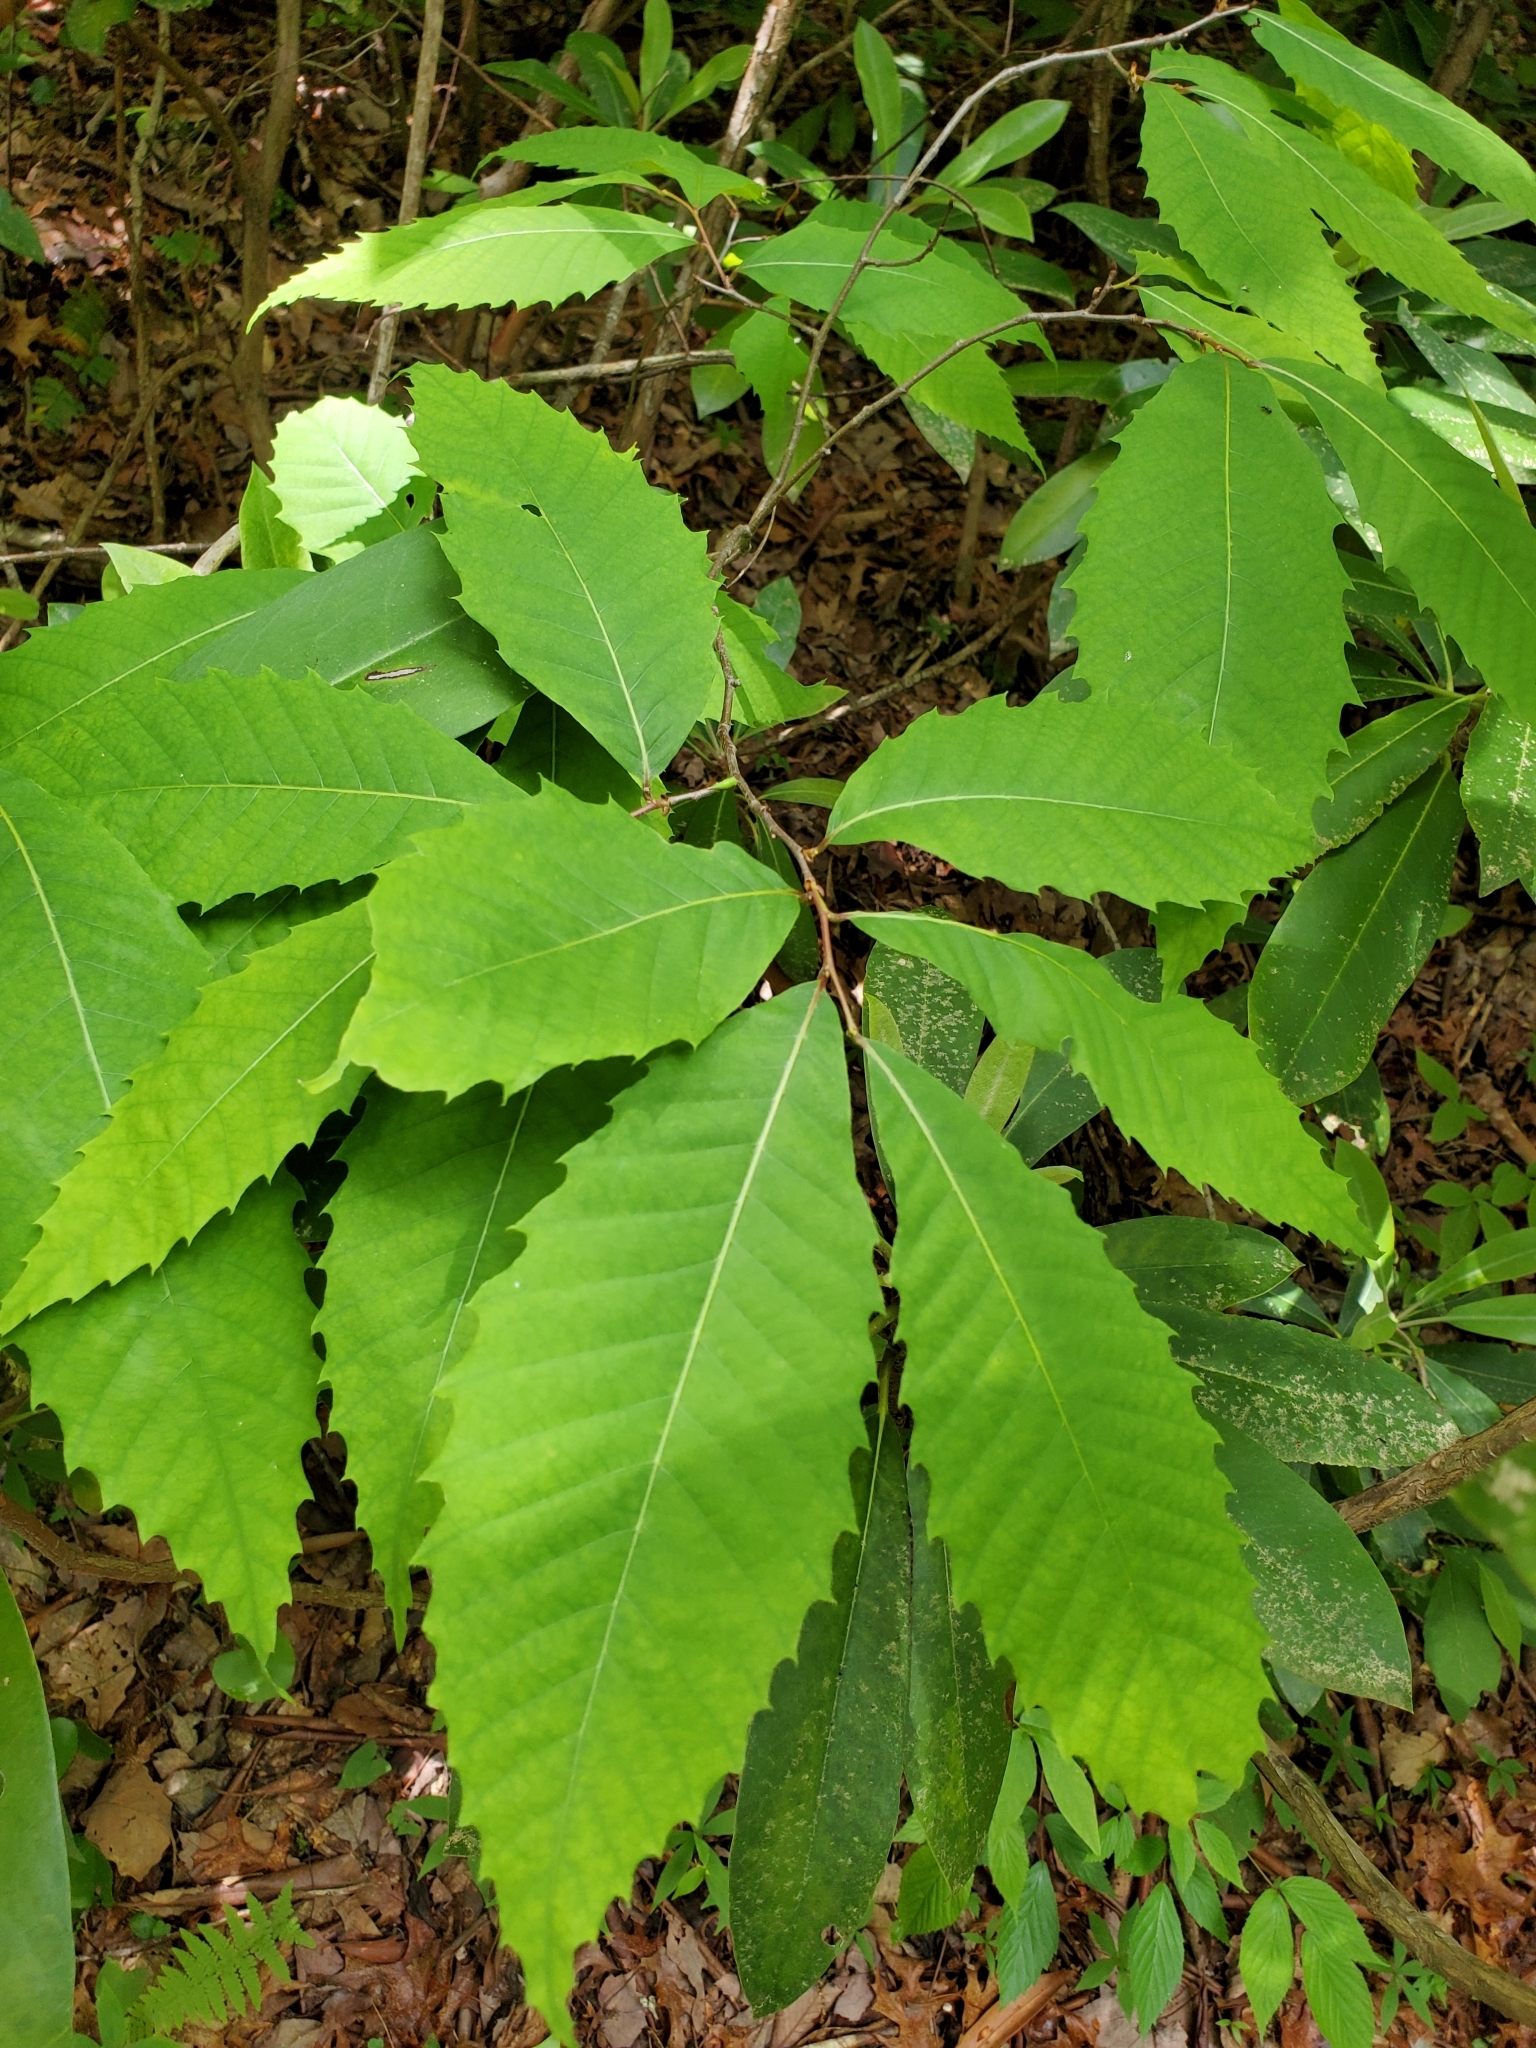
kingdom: Plantae
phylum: Tracheophyta
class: Magnoliopsida
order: Fagales
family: Fagaceae
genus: Castanea
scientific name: Castanea dentata
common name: American chestnut
